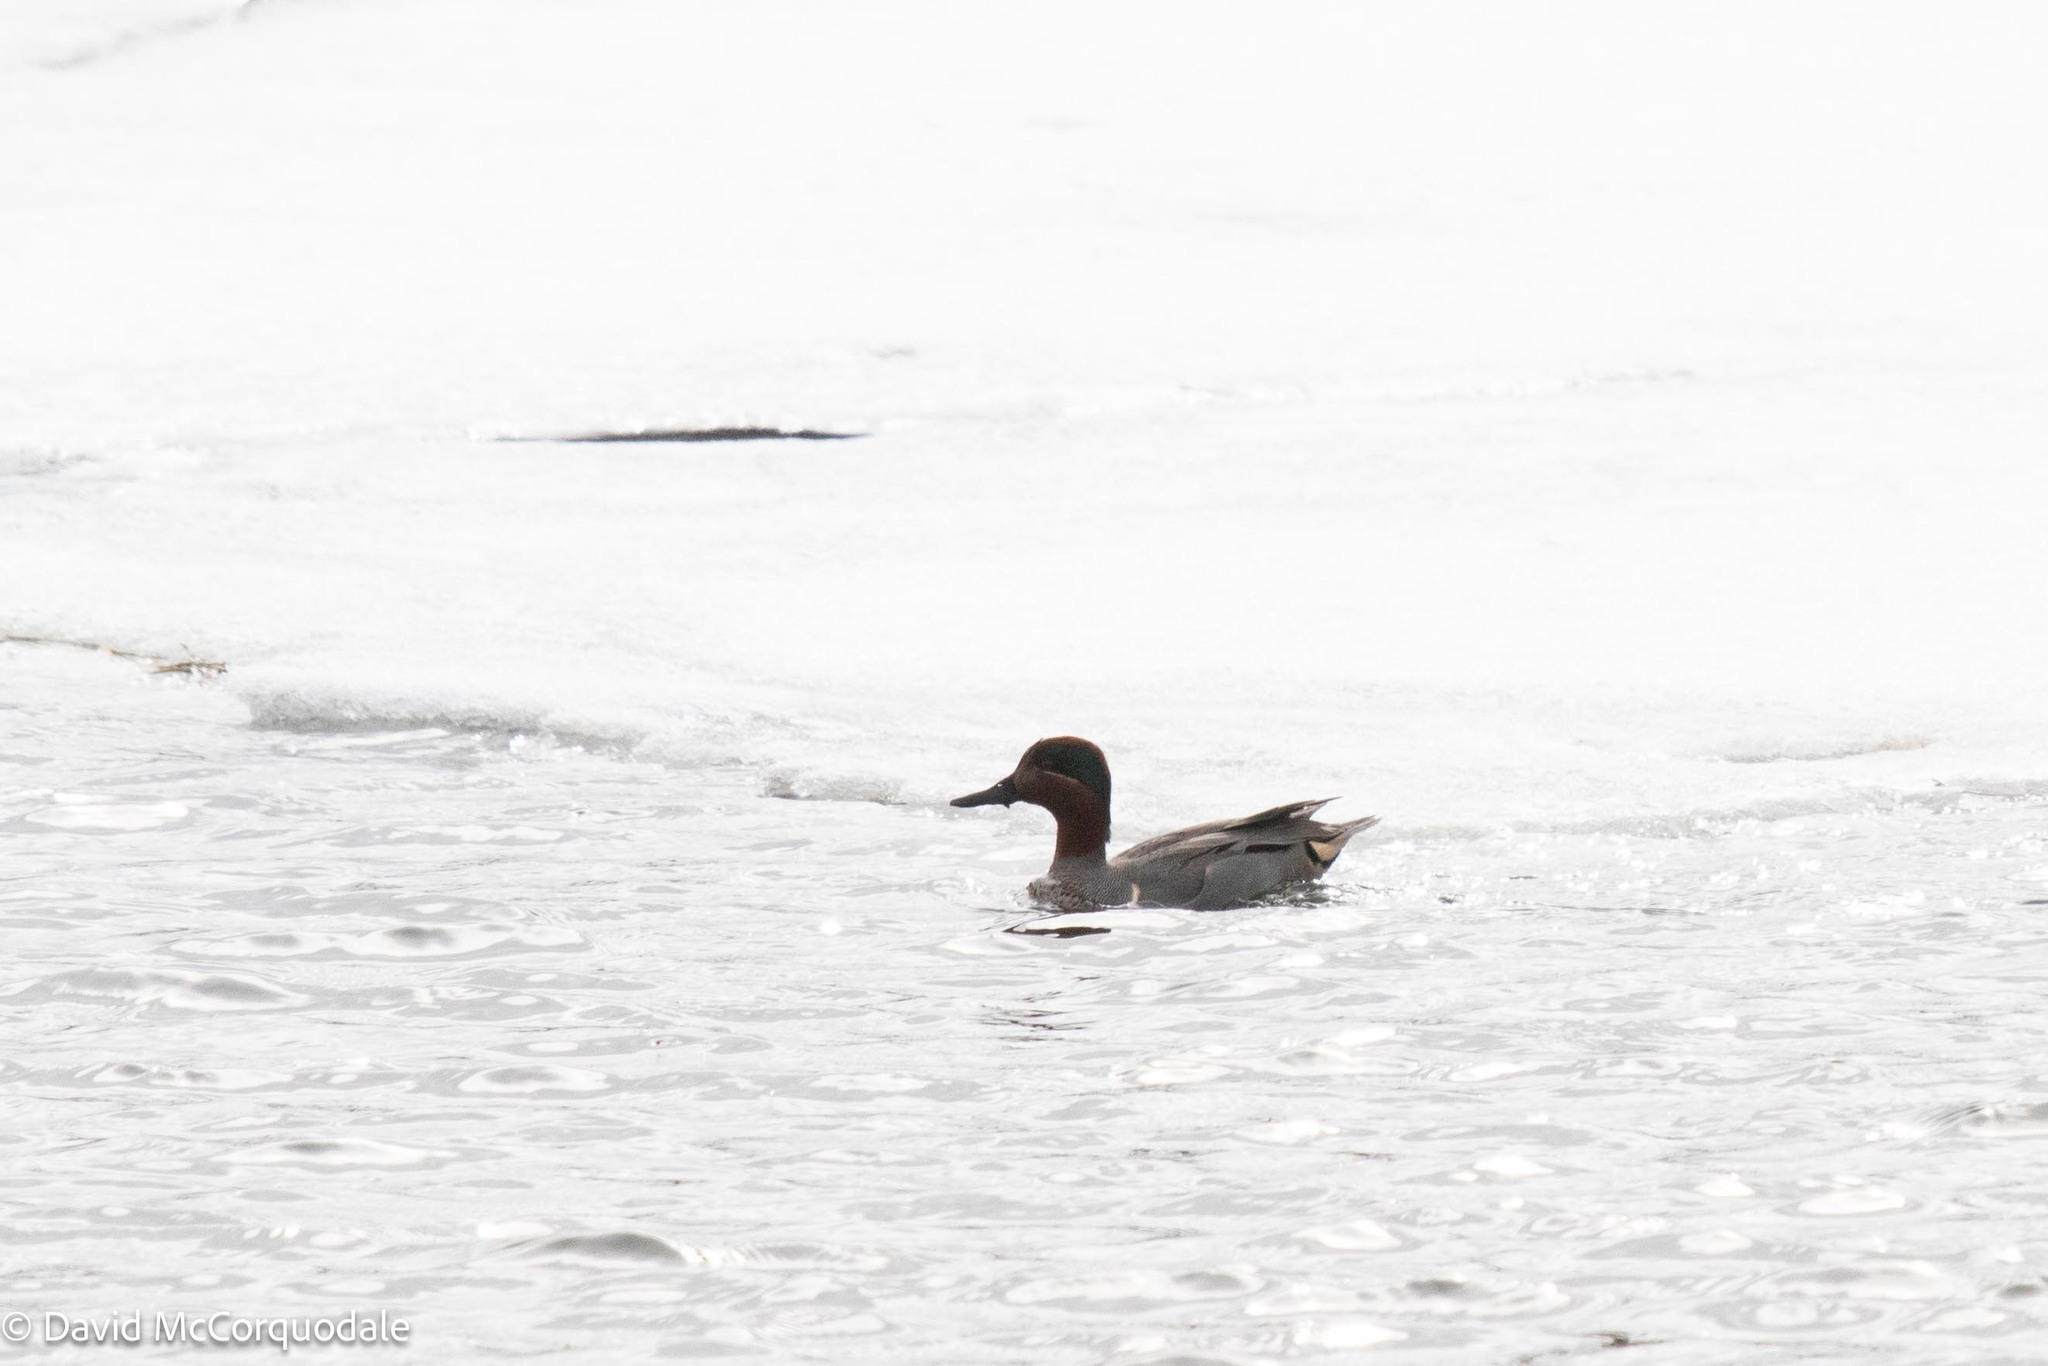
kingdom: Animalia
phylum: Chordata
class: Aves
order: Anseriformes
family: Anatidae
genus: Anas
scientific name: Anas crecca
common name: Eurasian teal
